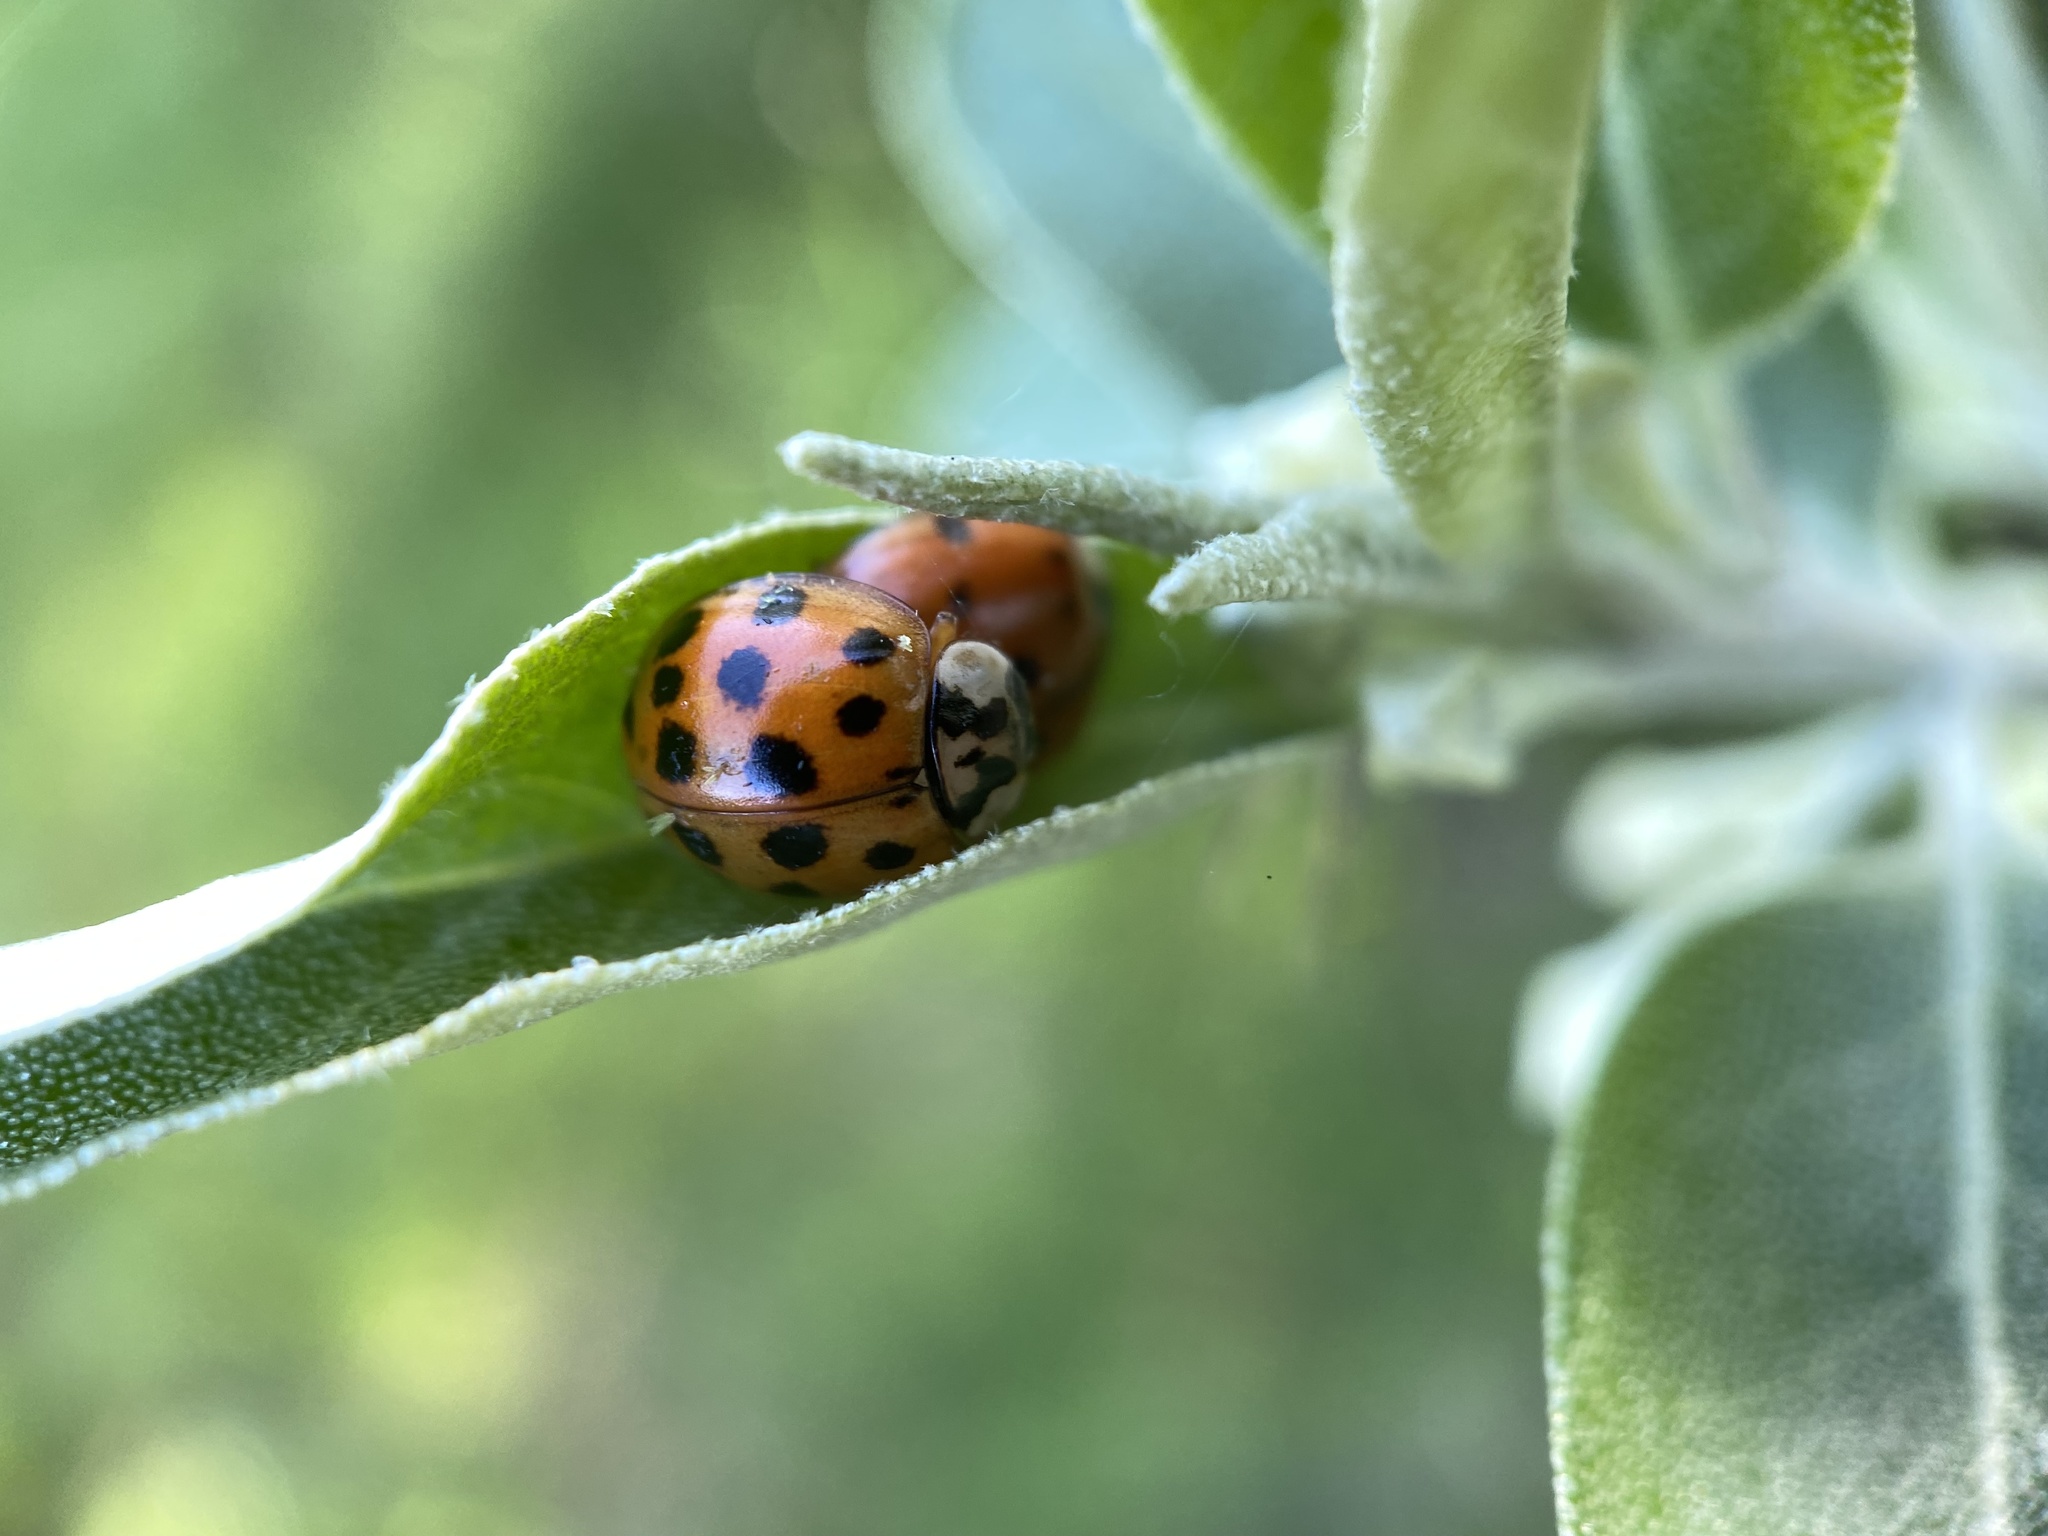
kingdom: Animalia
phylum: Arthropoda
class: Insecta
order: Coleoptera
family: Coccinellidae
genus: Harmonia
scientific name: Harmonia axyridis
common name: Harlequin ladybird
